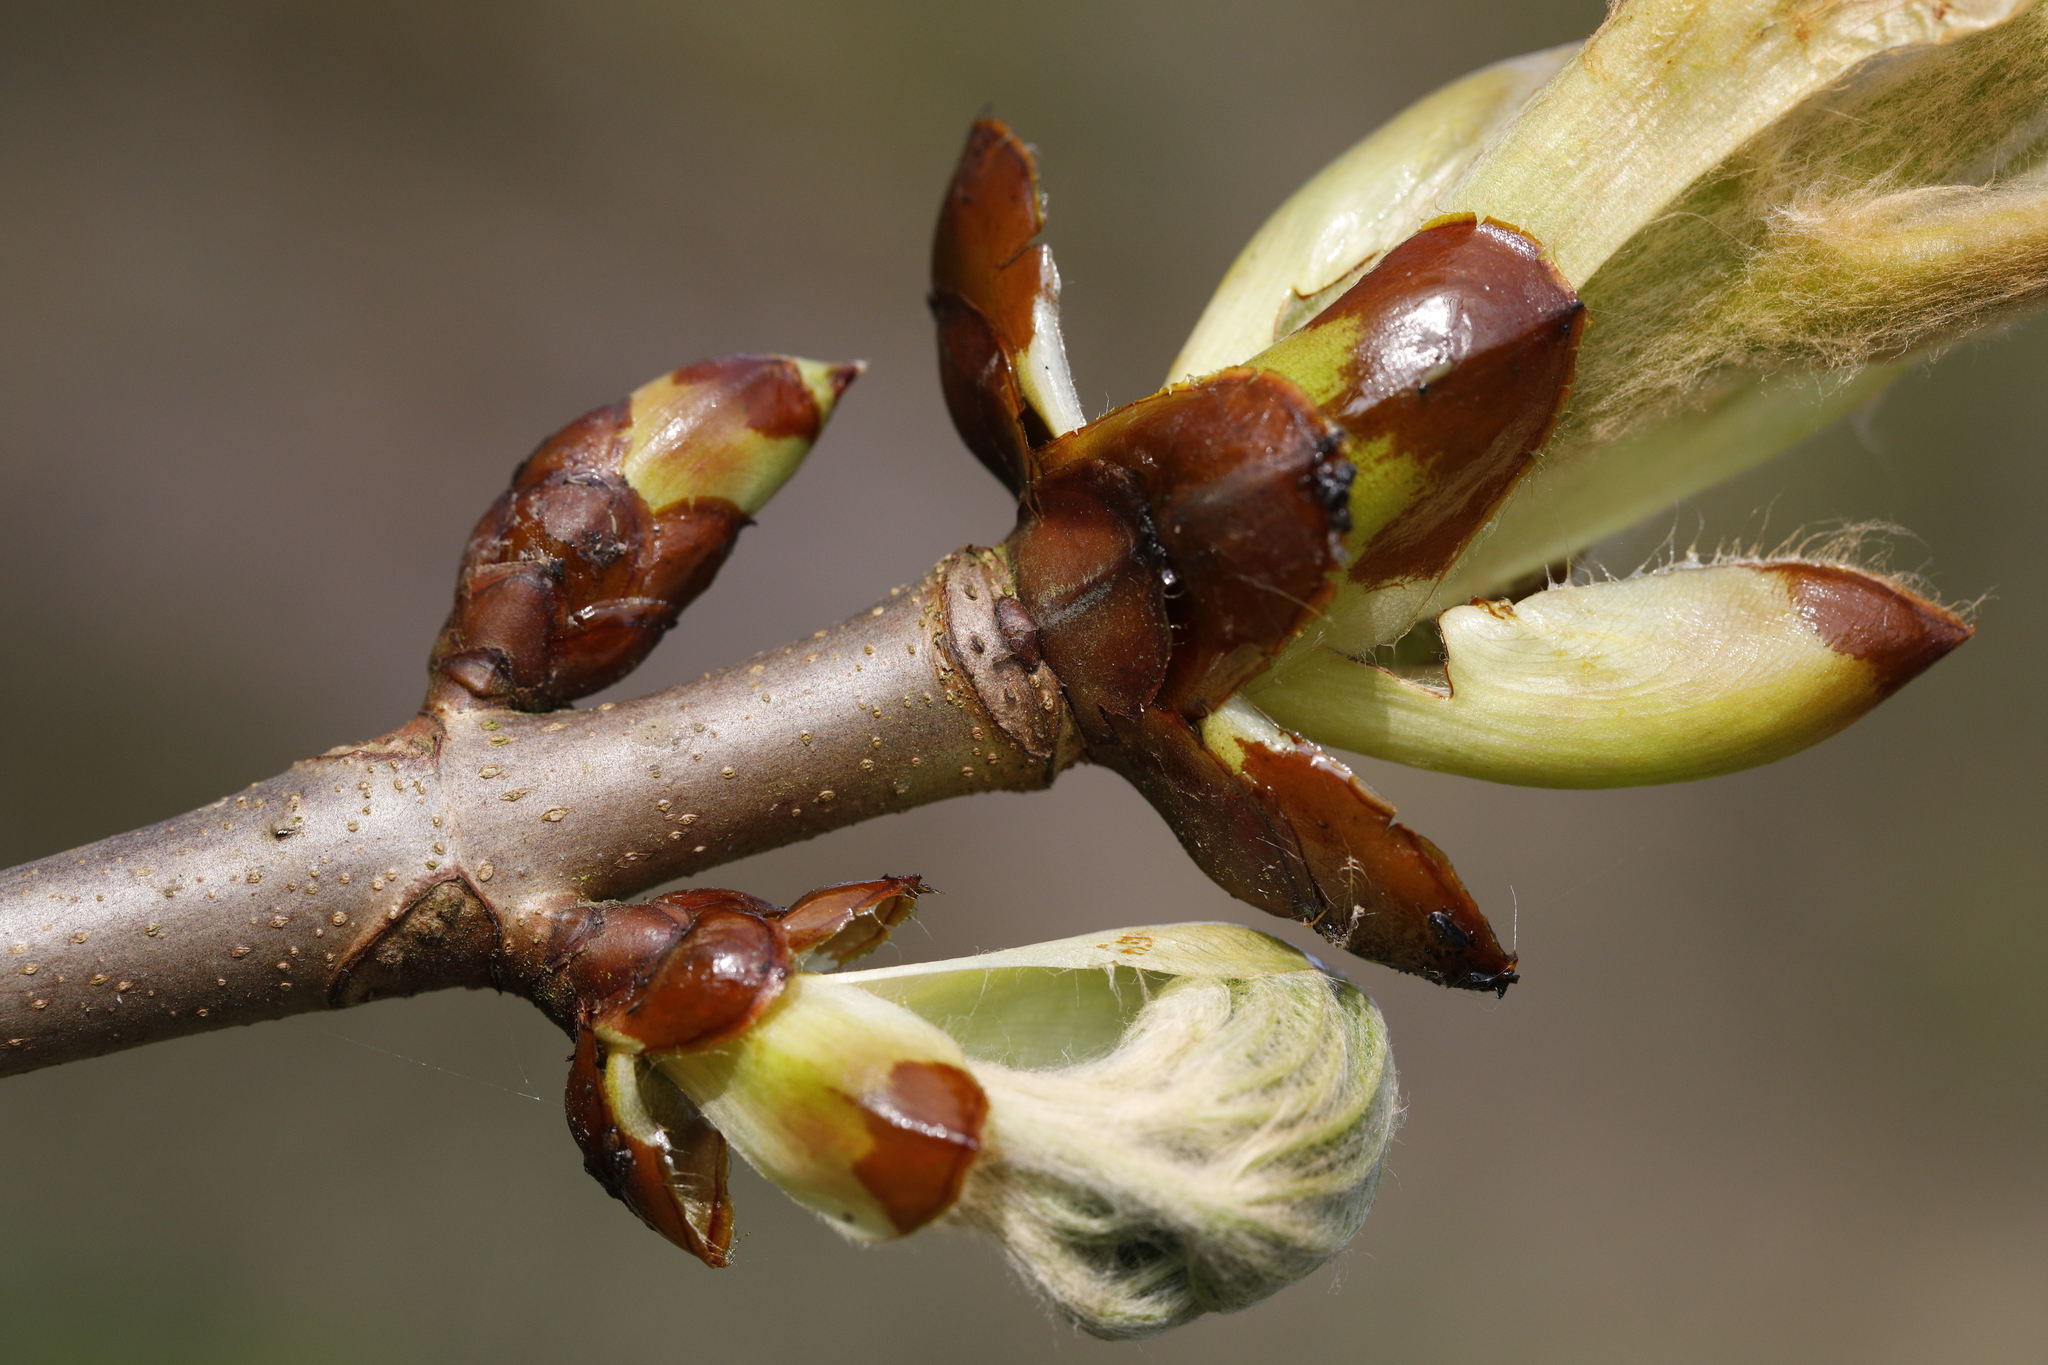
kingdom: Plantae
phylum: Tracheophyta
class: Magnoliopsida
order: Sapindales
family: Sapindaceae
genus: Aesculus
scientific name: Aesculus hippocastanum
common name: Horse-chestnut
